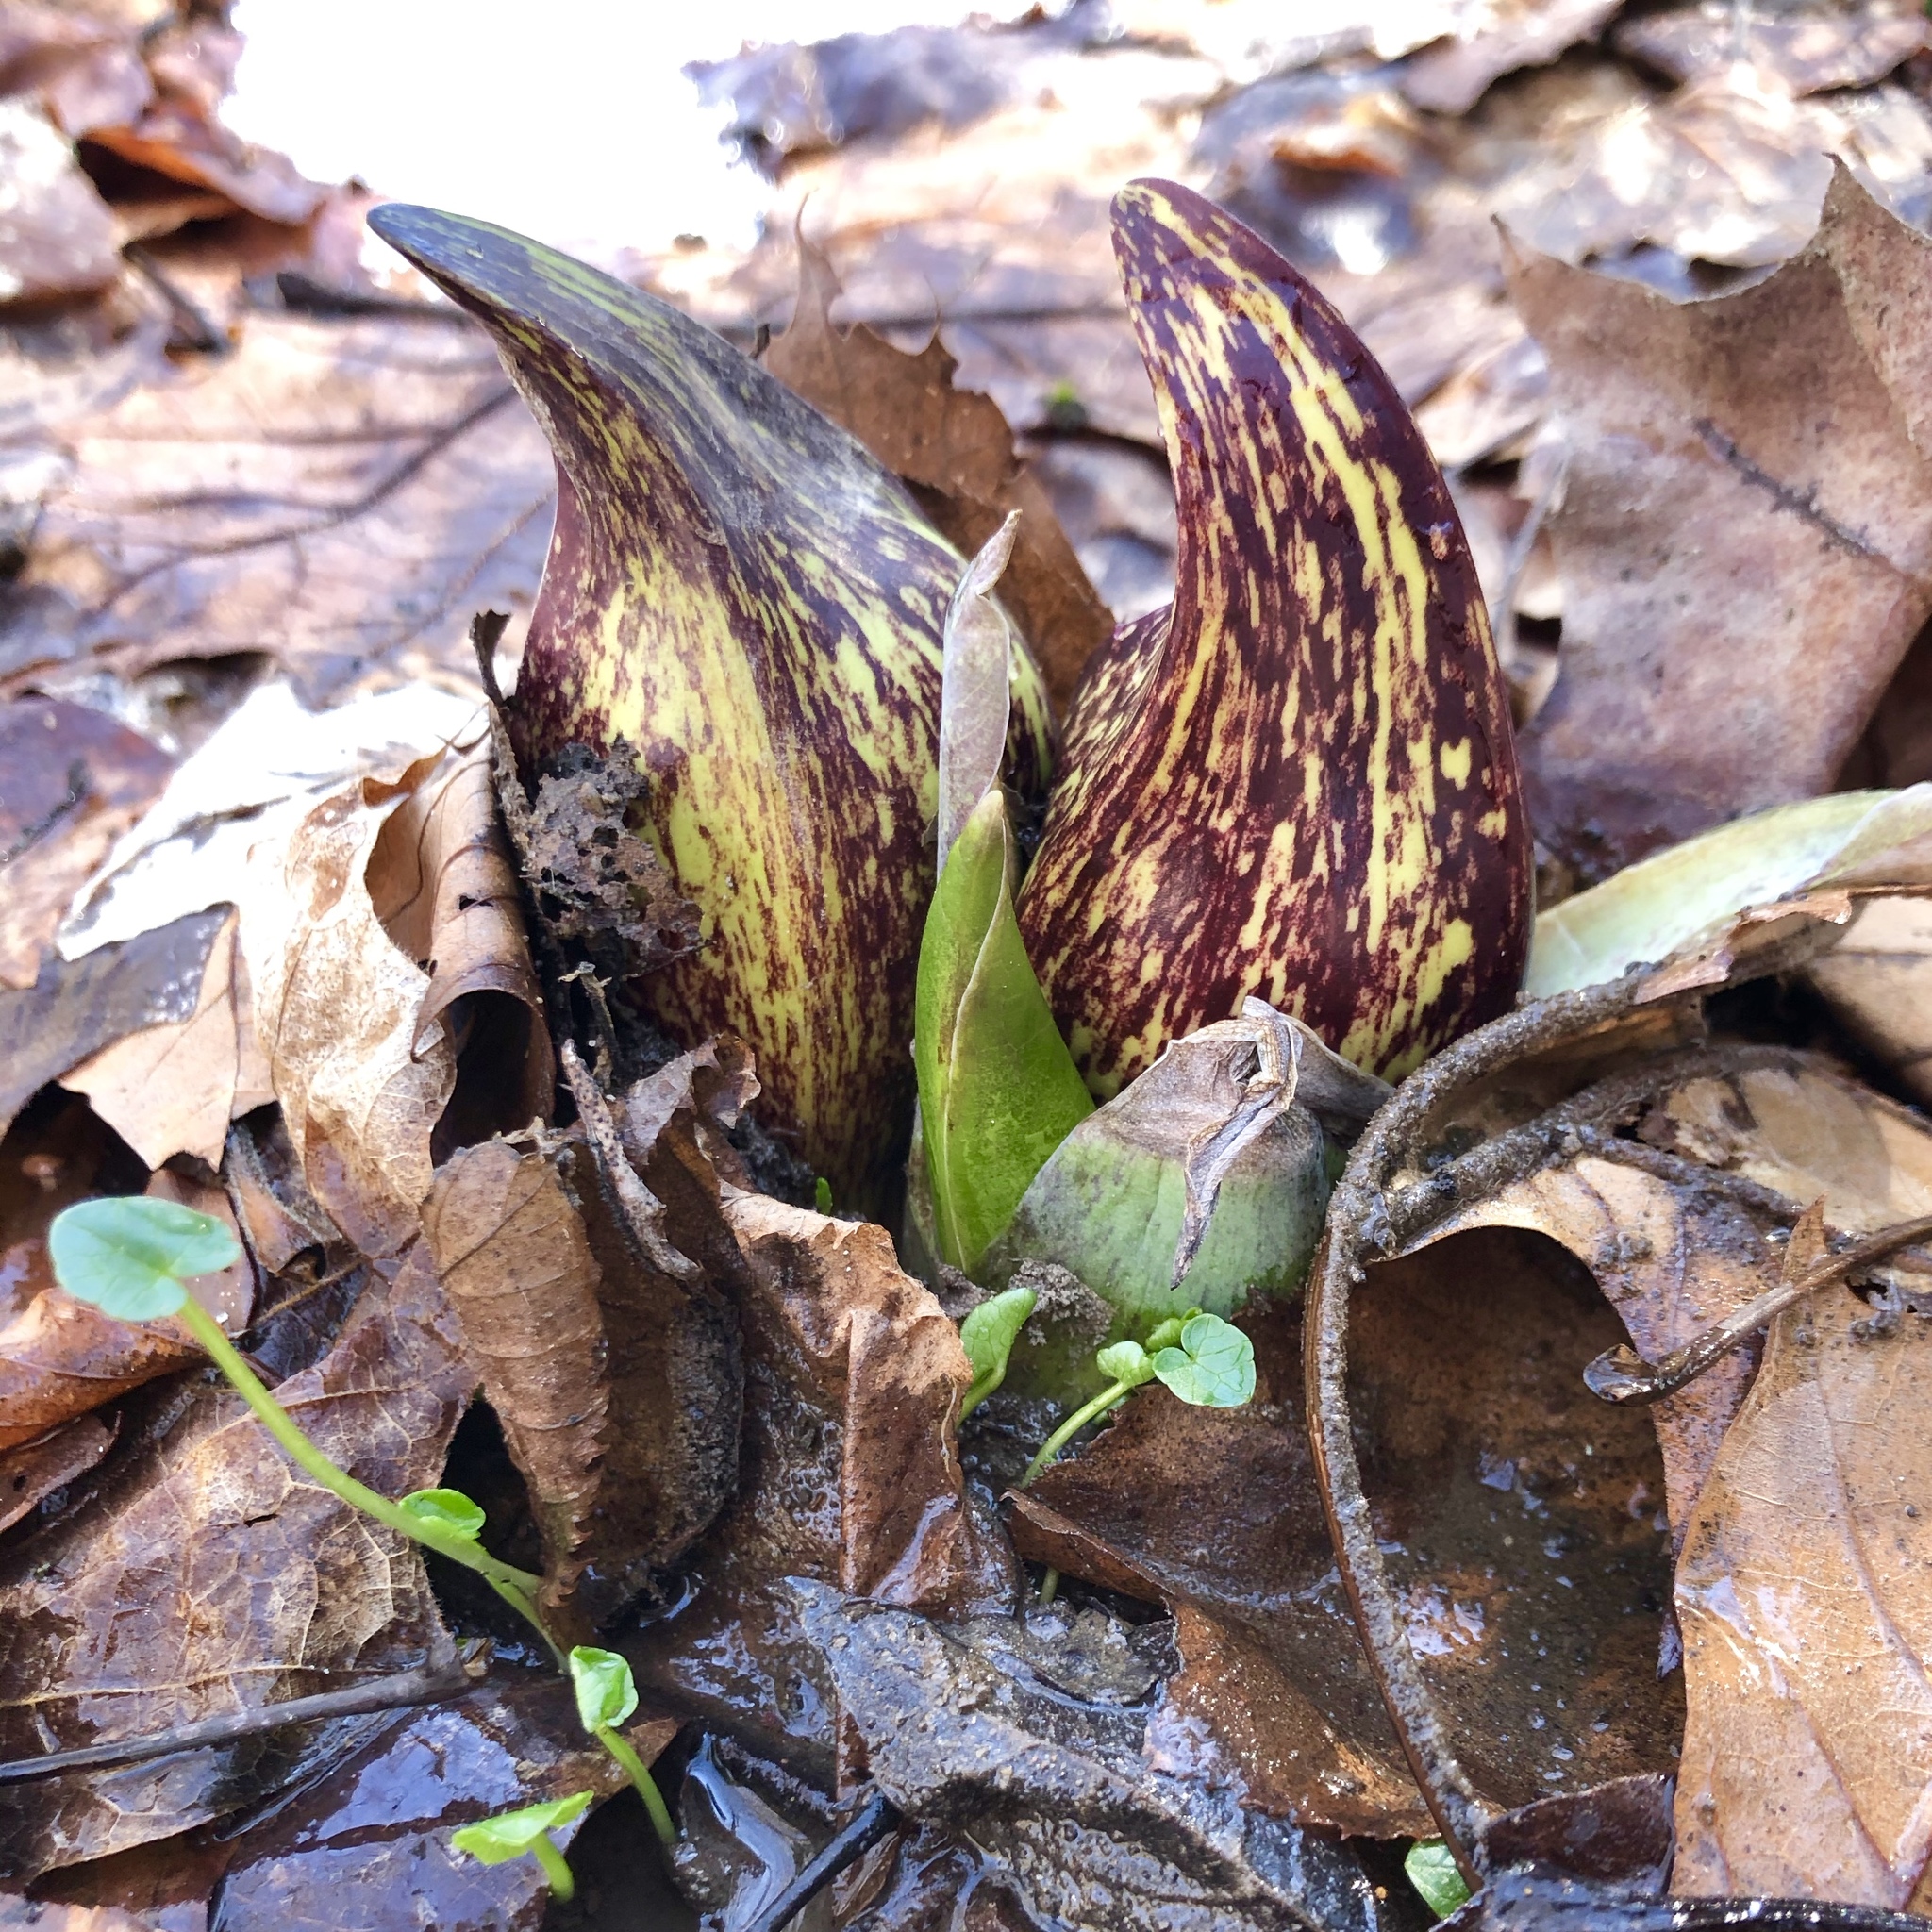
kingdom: Plantae
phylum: Tracheophyta
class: Liliopsida
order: Alismatales
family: Araceae
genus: Symplocarpus
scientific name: Symplocarpus foetidus
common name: Eastern skunk cabbage
